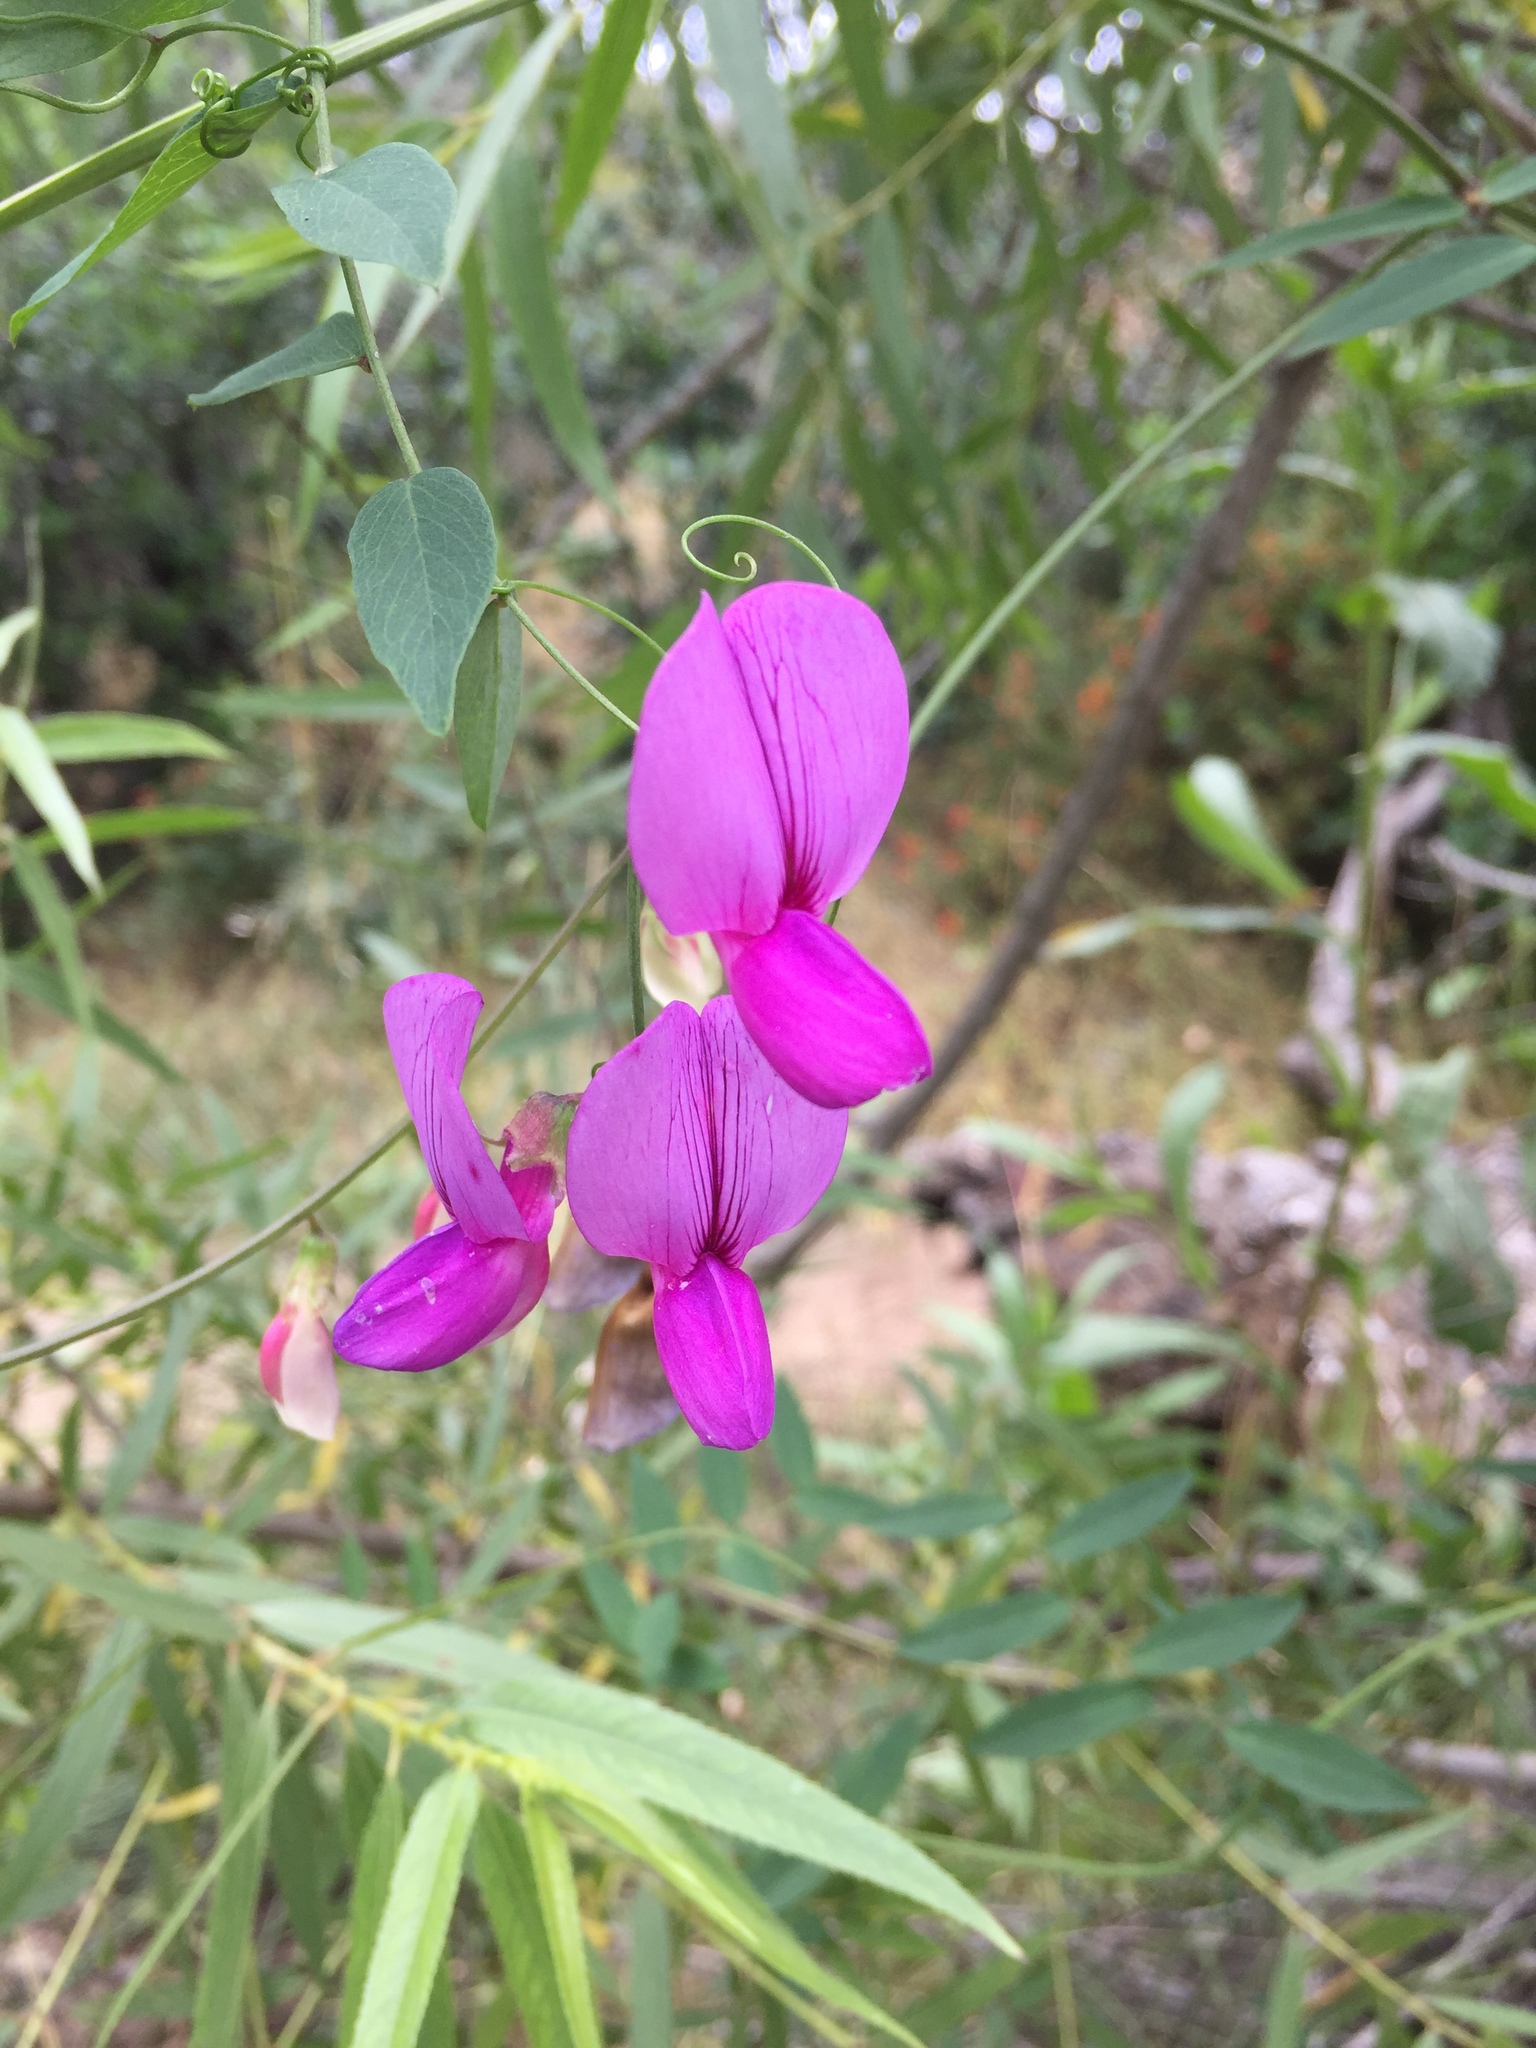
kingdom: Plantae
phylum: Tracheophyta
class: Magnoliopsida
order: Fabales
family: Fabaceae
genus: Lathyrus
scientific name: Lathyrus vestitus
